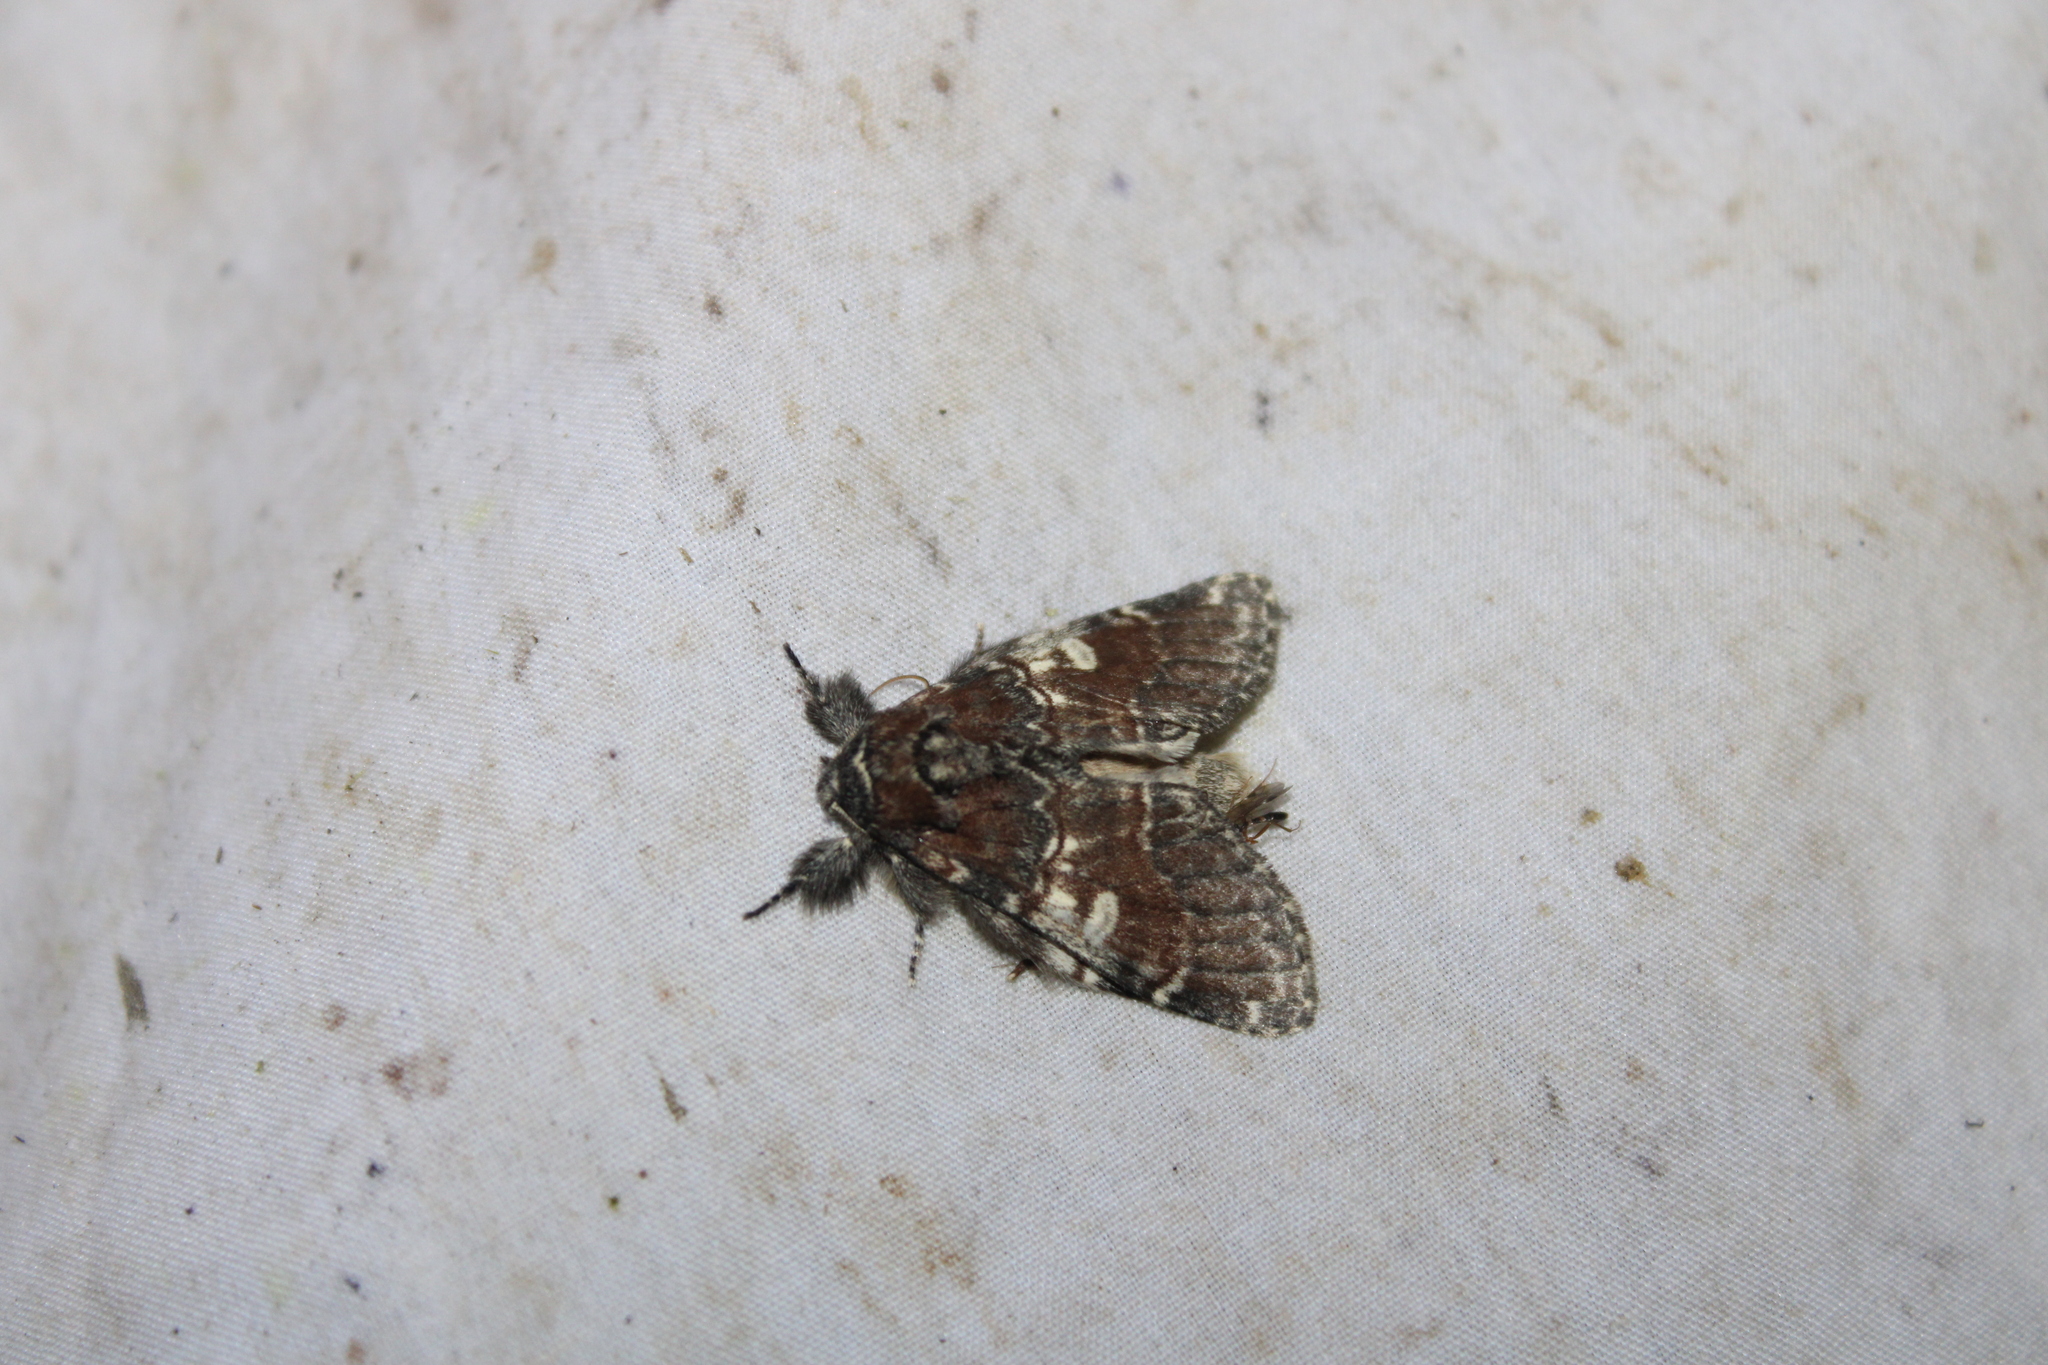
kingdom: Animalia
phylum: Arthropoda
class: Insecta
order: Lepidoptera
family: Notodontidae
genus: Peridea
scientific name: Peridea ferruginea
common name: Chocolate prominent
